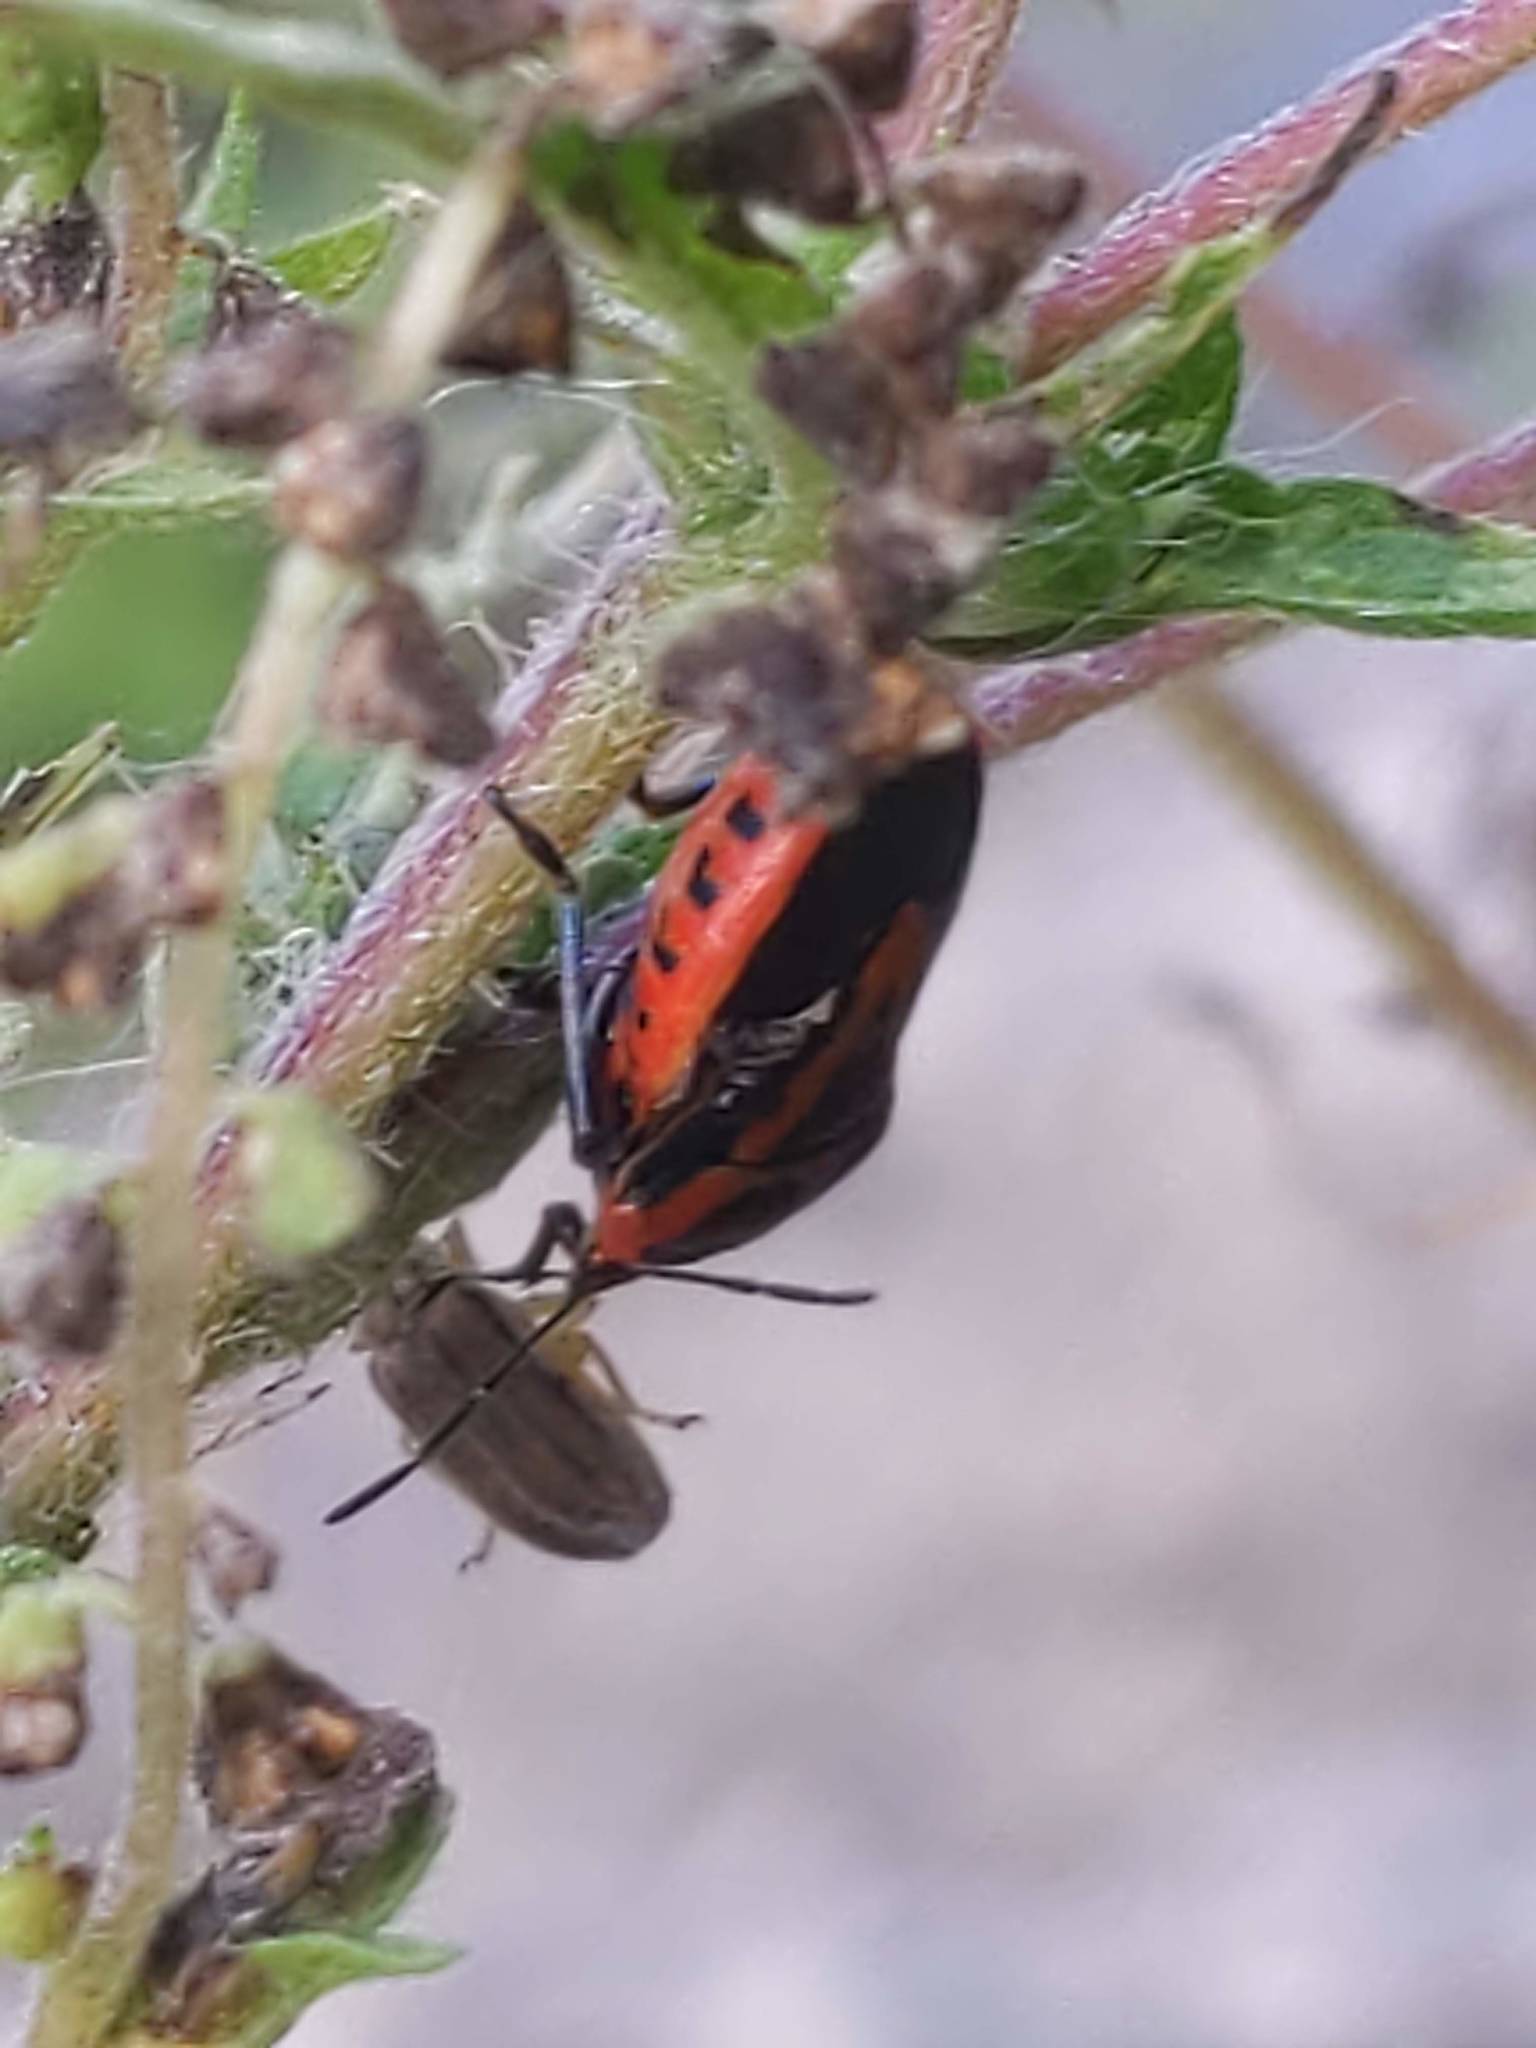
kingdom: Animalia
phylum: Arthropoda
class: Insecta
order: Hemiptera
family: Pentatomidae
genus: Perillus
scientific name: Perillus strigipes
